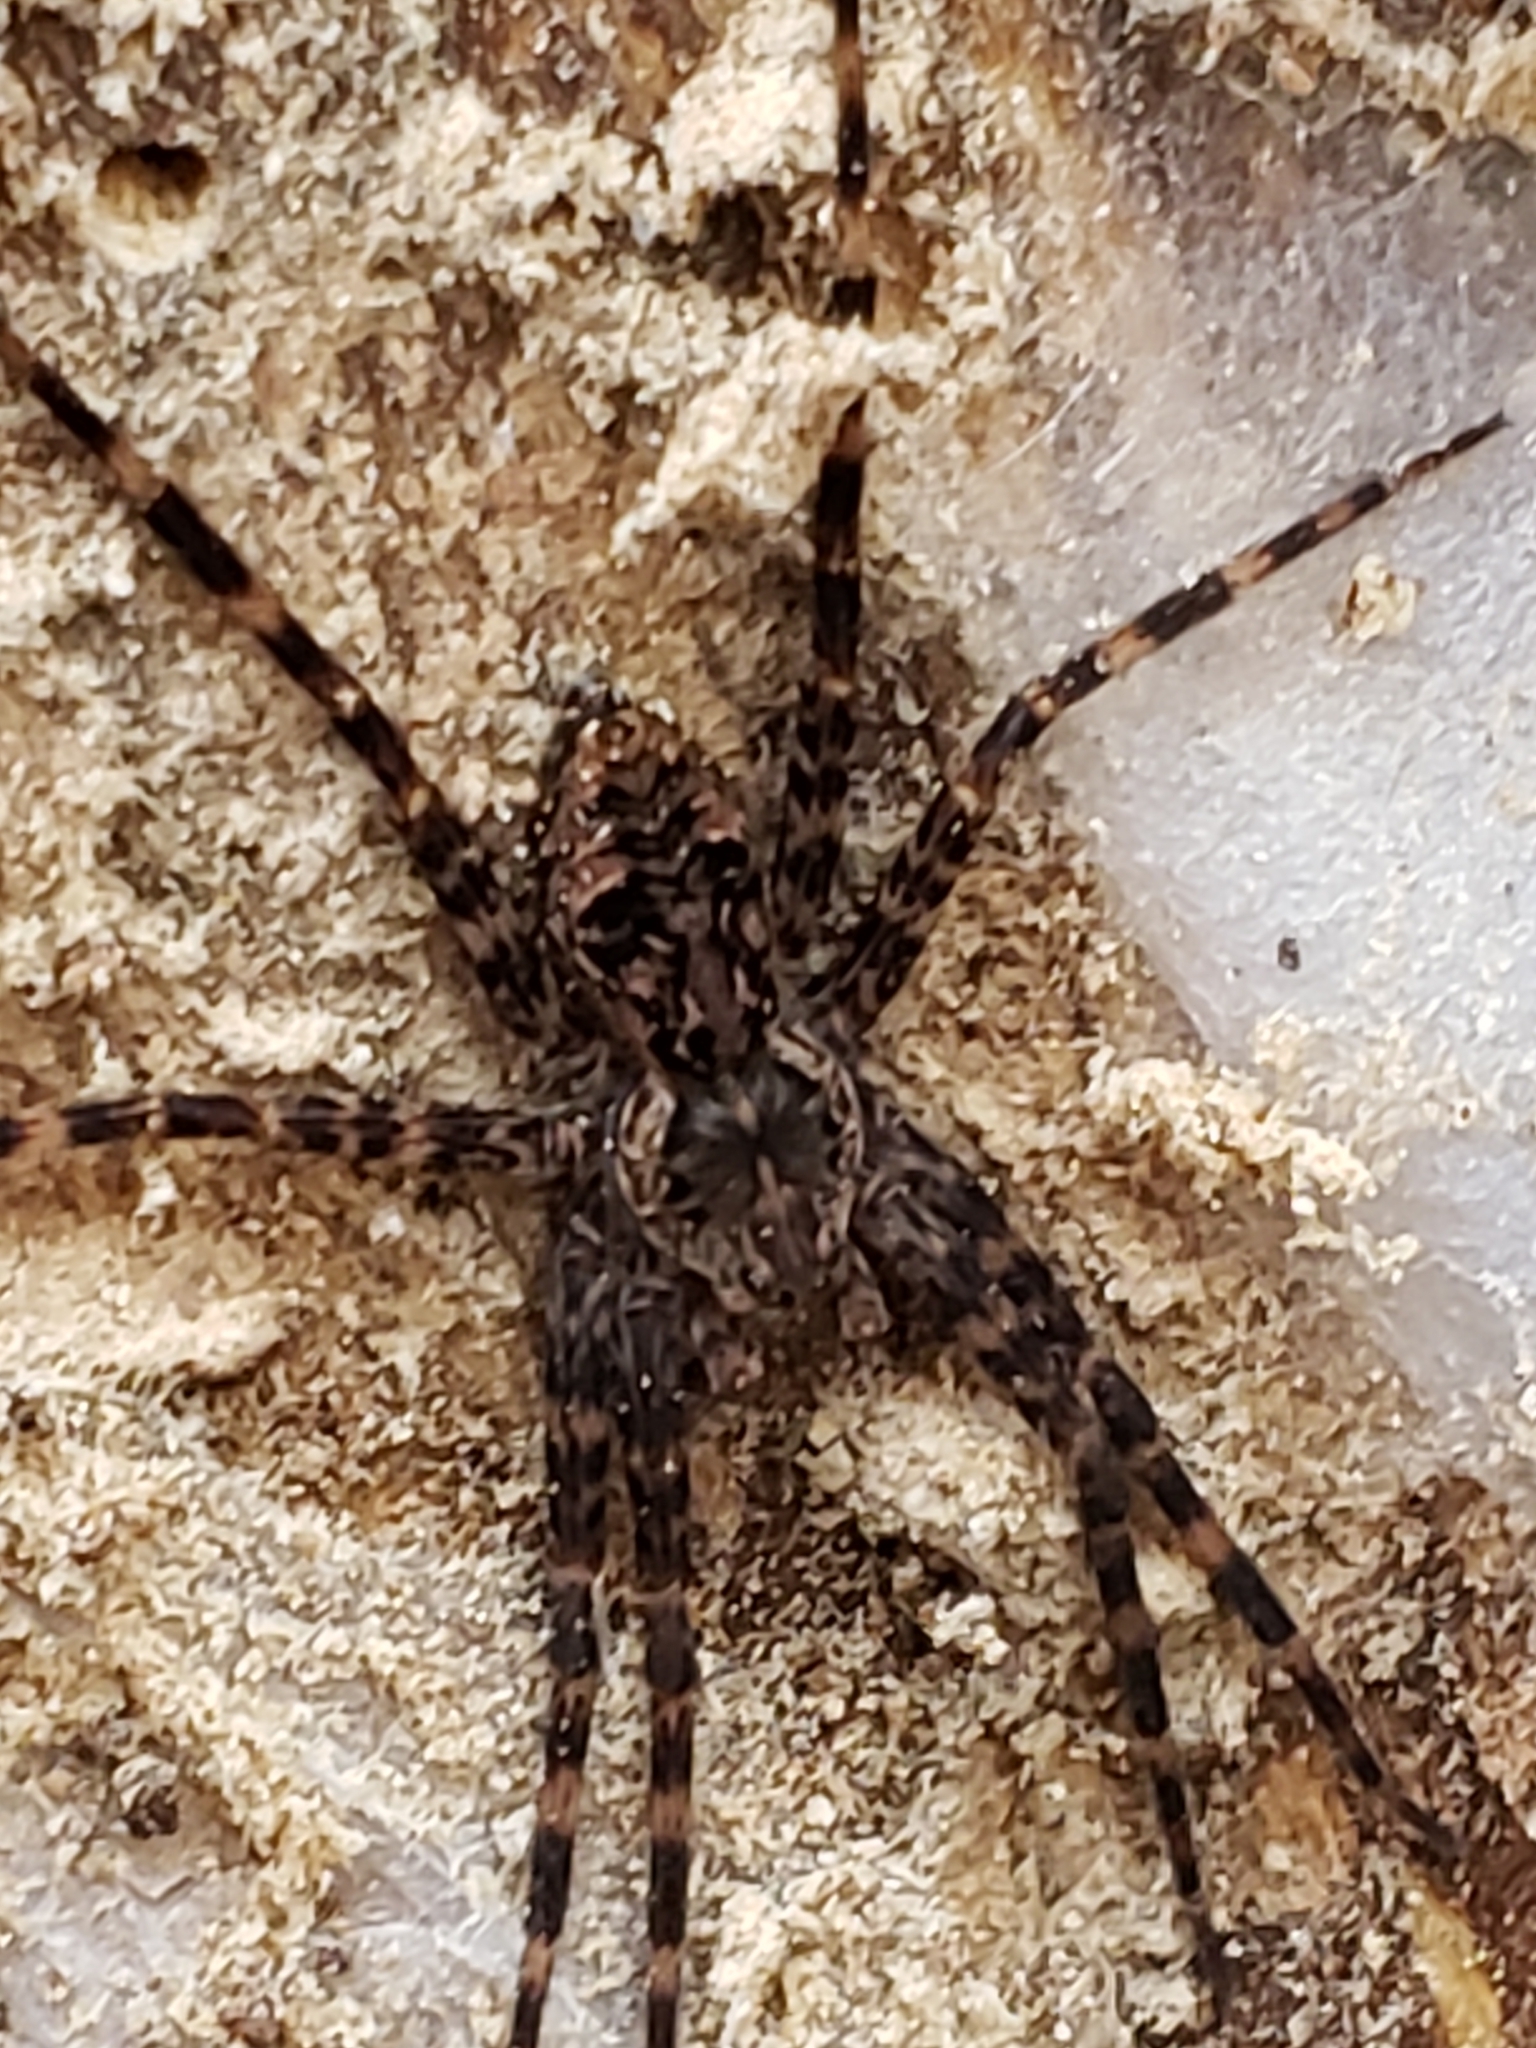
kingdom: Animalia
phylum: Arthropoda
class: Arachnida
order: Araneae
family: Pisauridae
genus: Dolomedes
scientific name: Dolomedes tenebrosus
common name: Dark fishing spider
